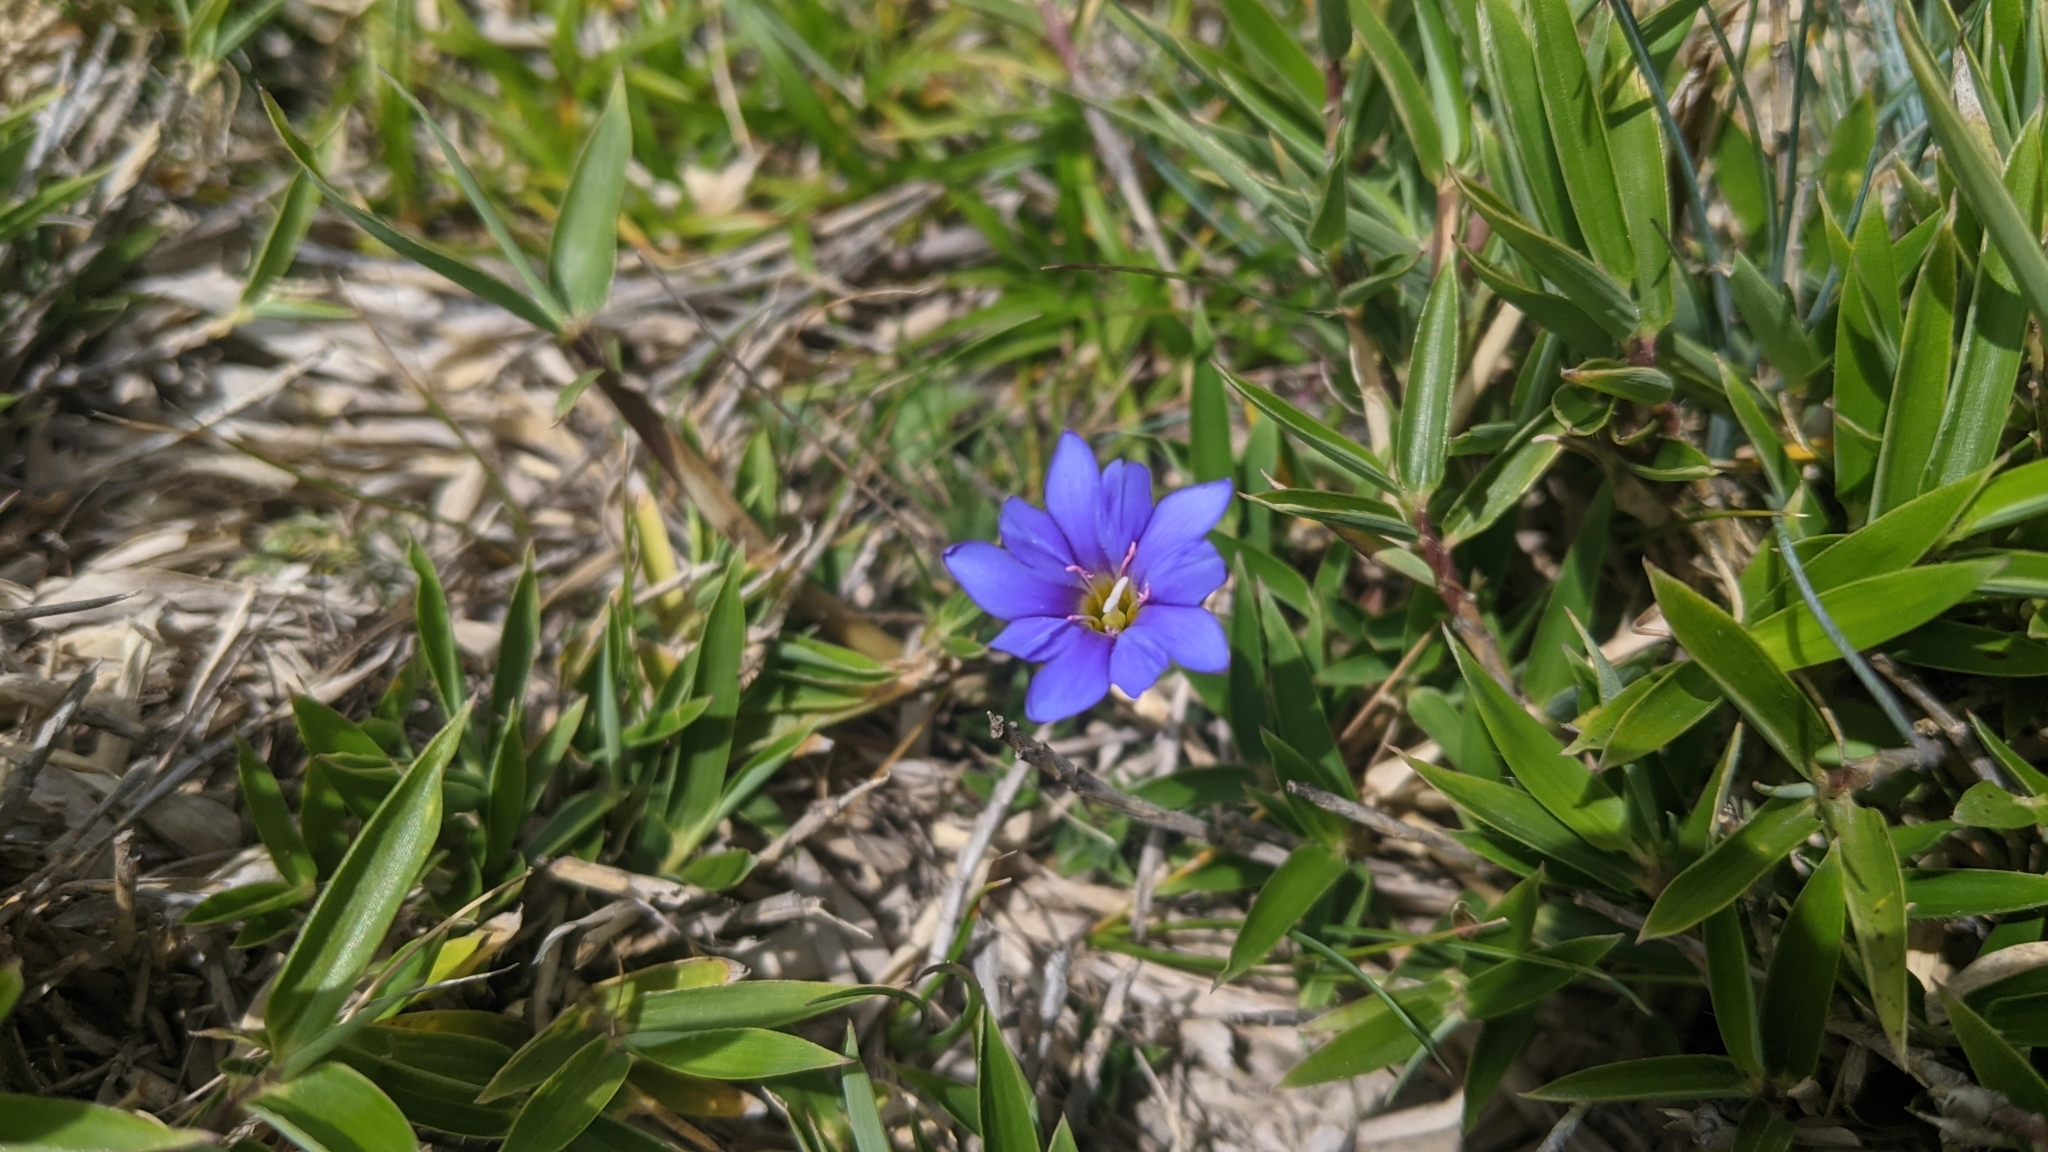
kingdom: Plantae
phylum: Tracheophyta
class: Magnoliopsida
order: Gentianales
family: Gentianaceae
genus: Gentiana
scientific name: Gentiana arisanensis
